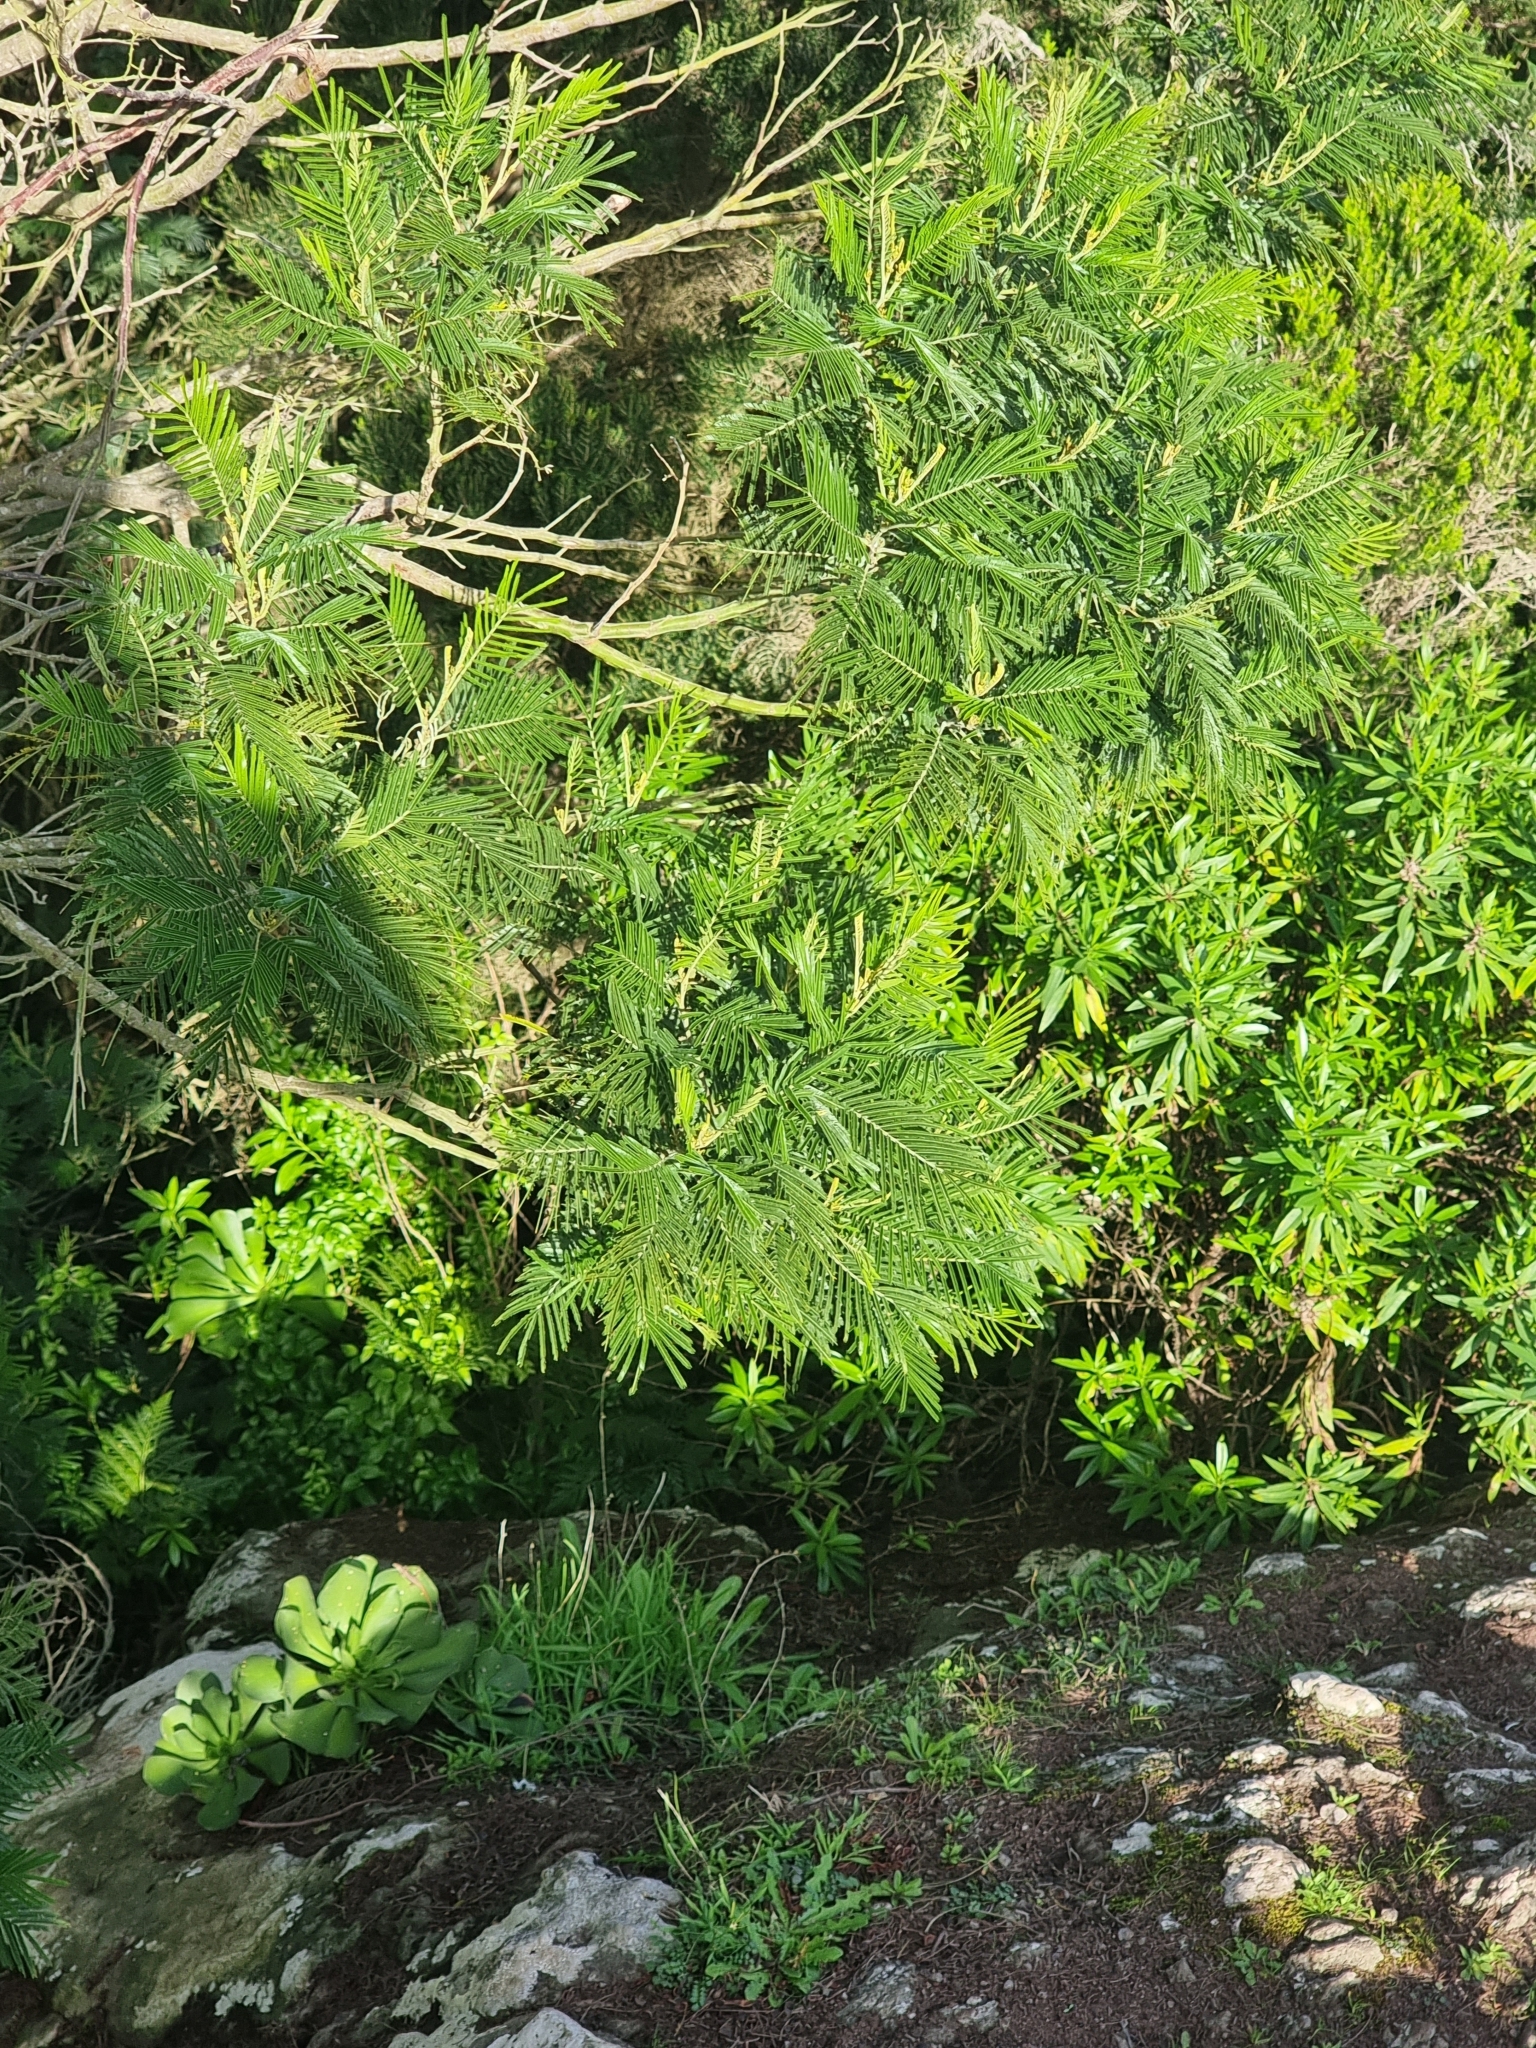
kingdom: Plantae
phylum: Tracheophyta
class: Magnoliopsida
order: Fabales
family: Fabaceae
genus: Acacia
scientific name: Acacia mearnsii
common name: Black wattle
